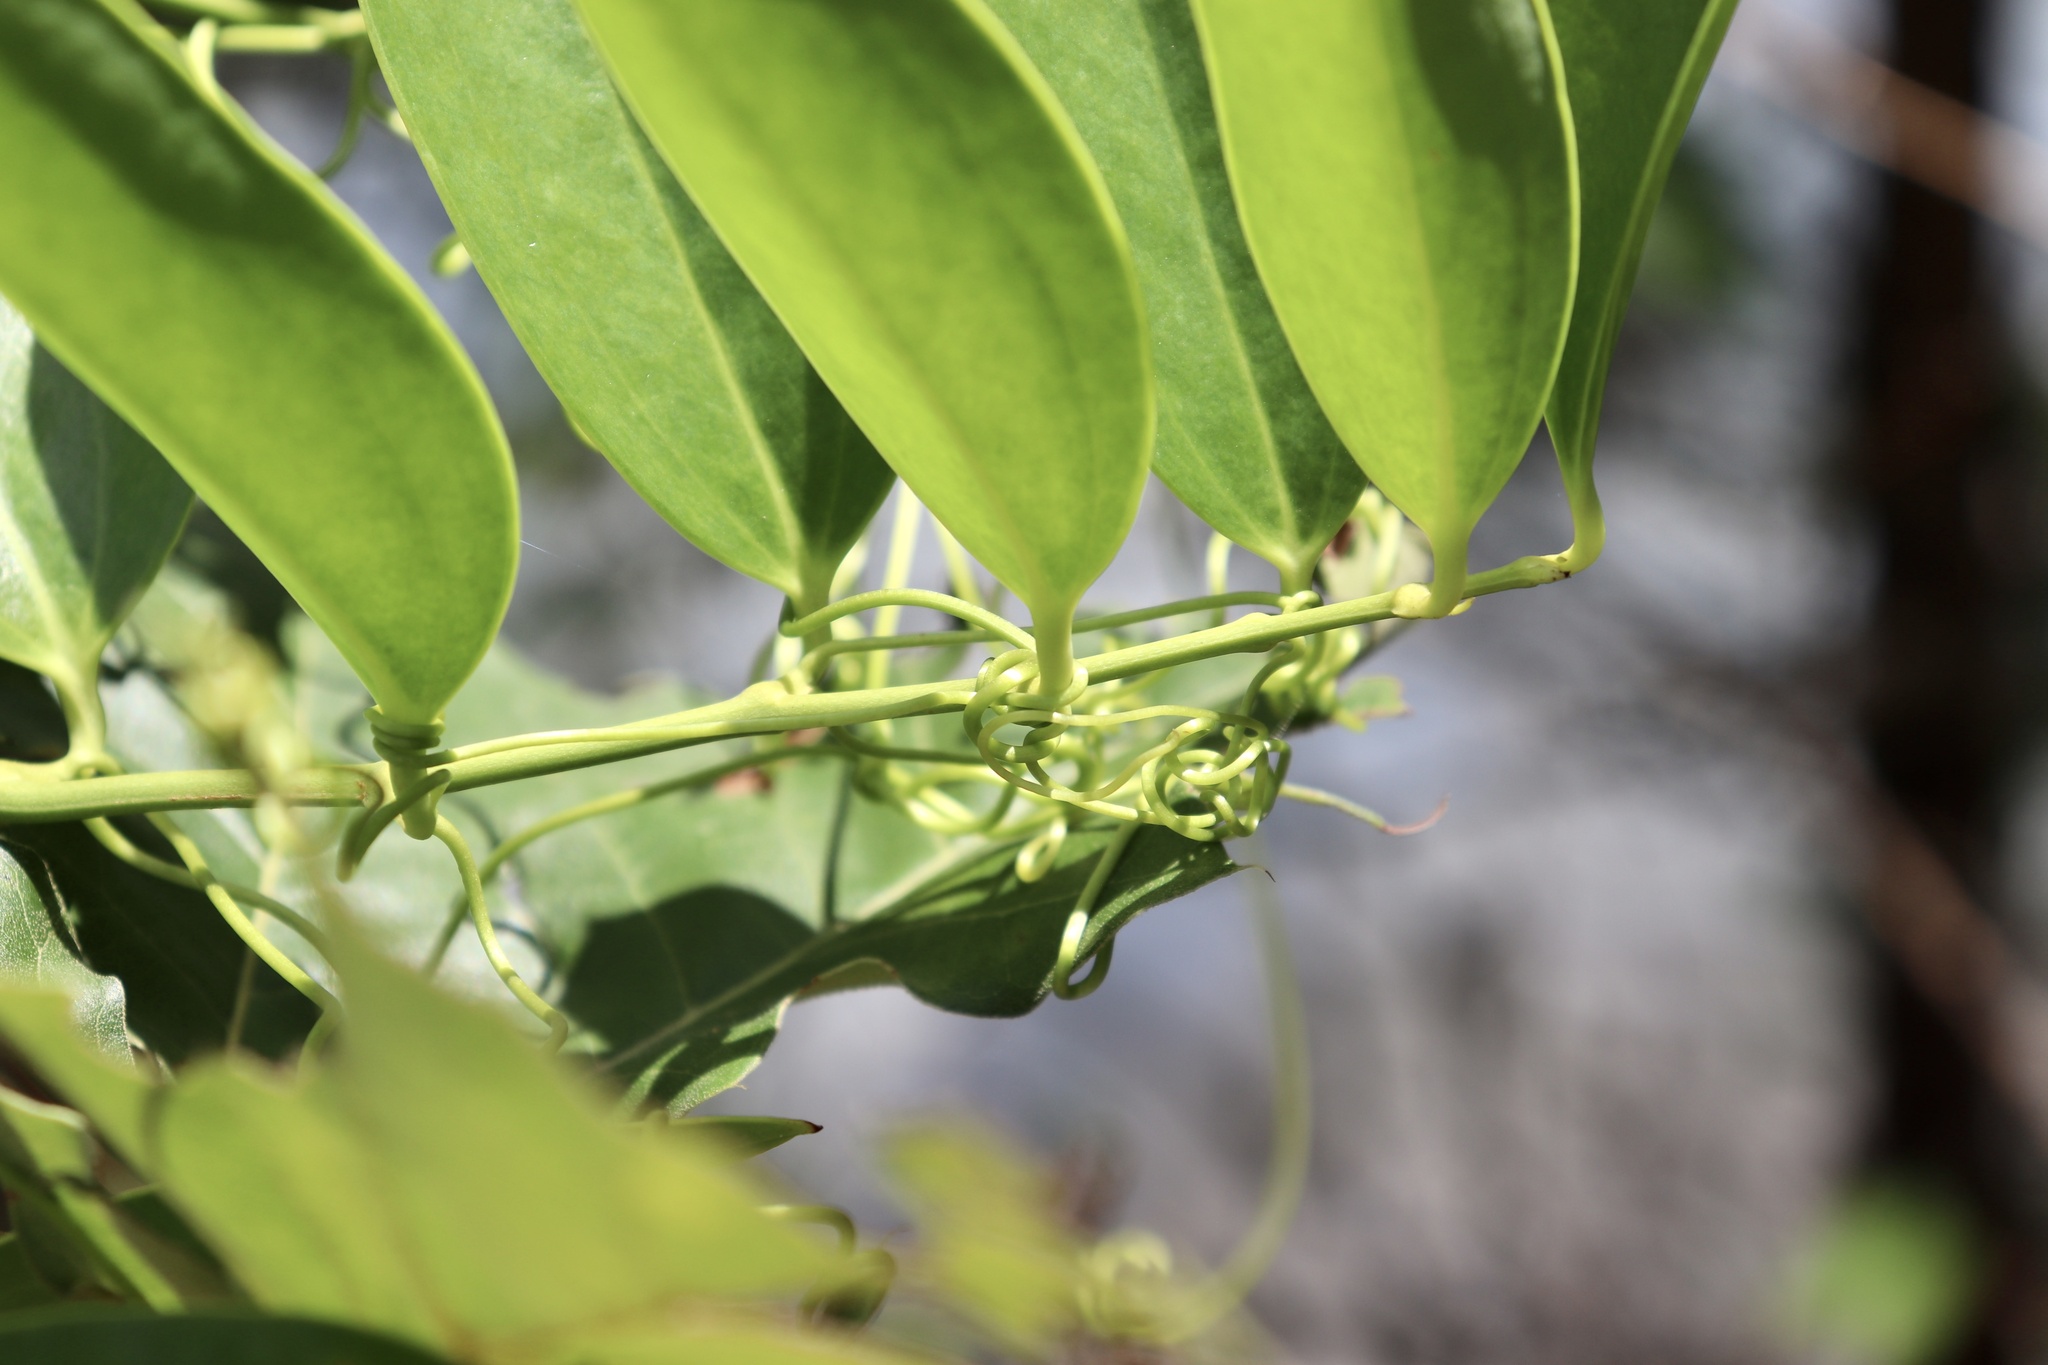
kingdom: Plantae
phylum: Tracheophyta
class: Liliopsida
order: Liliales
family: Smilacaceae
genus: Smilax
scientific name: Smilax laurifolia
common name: Bamboovine
